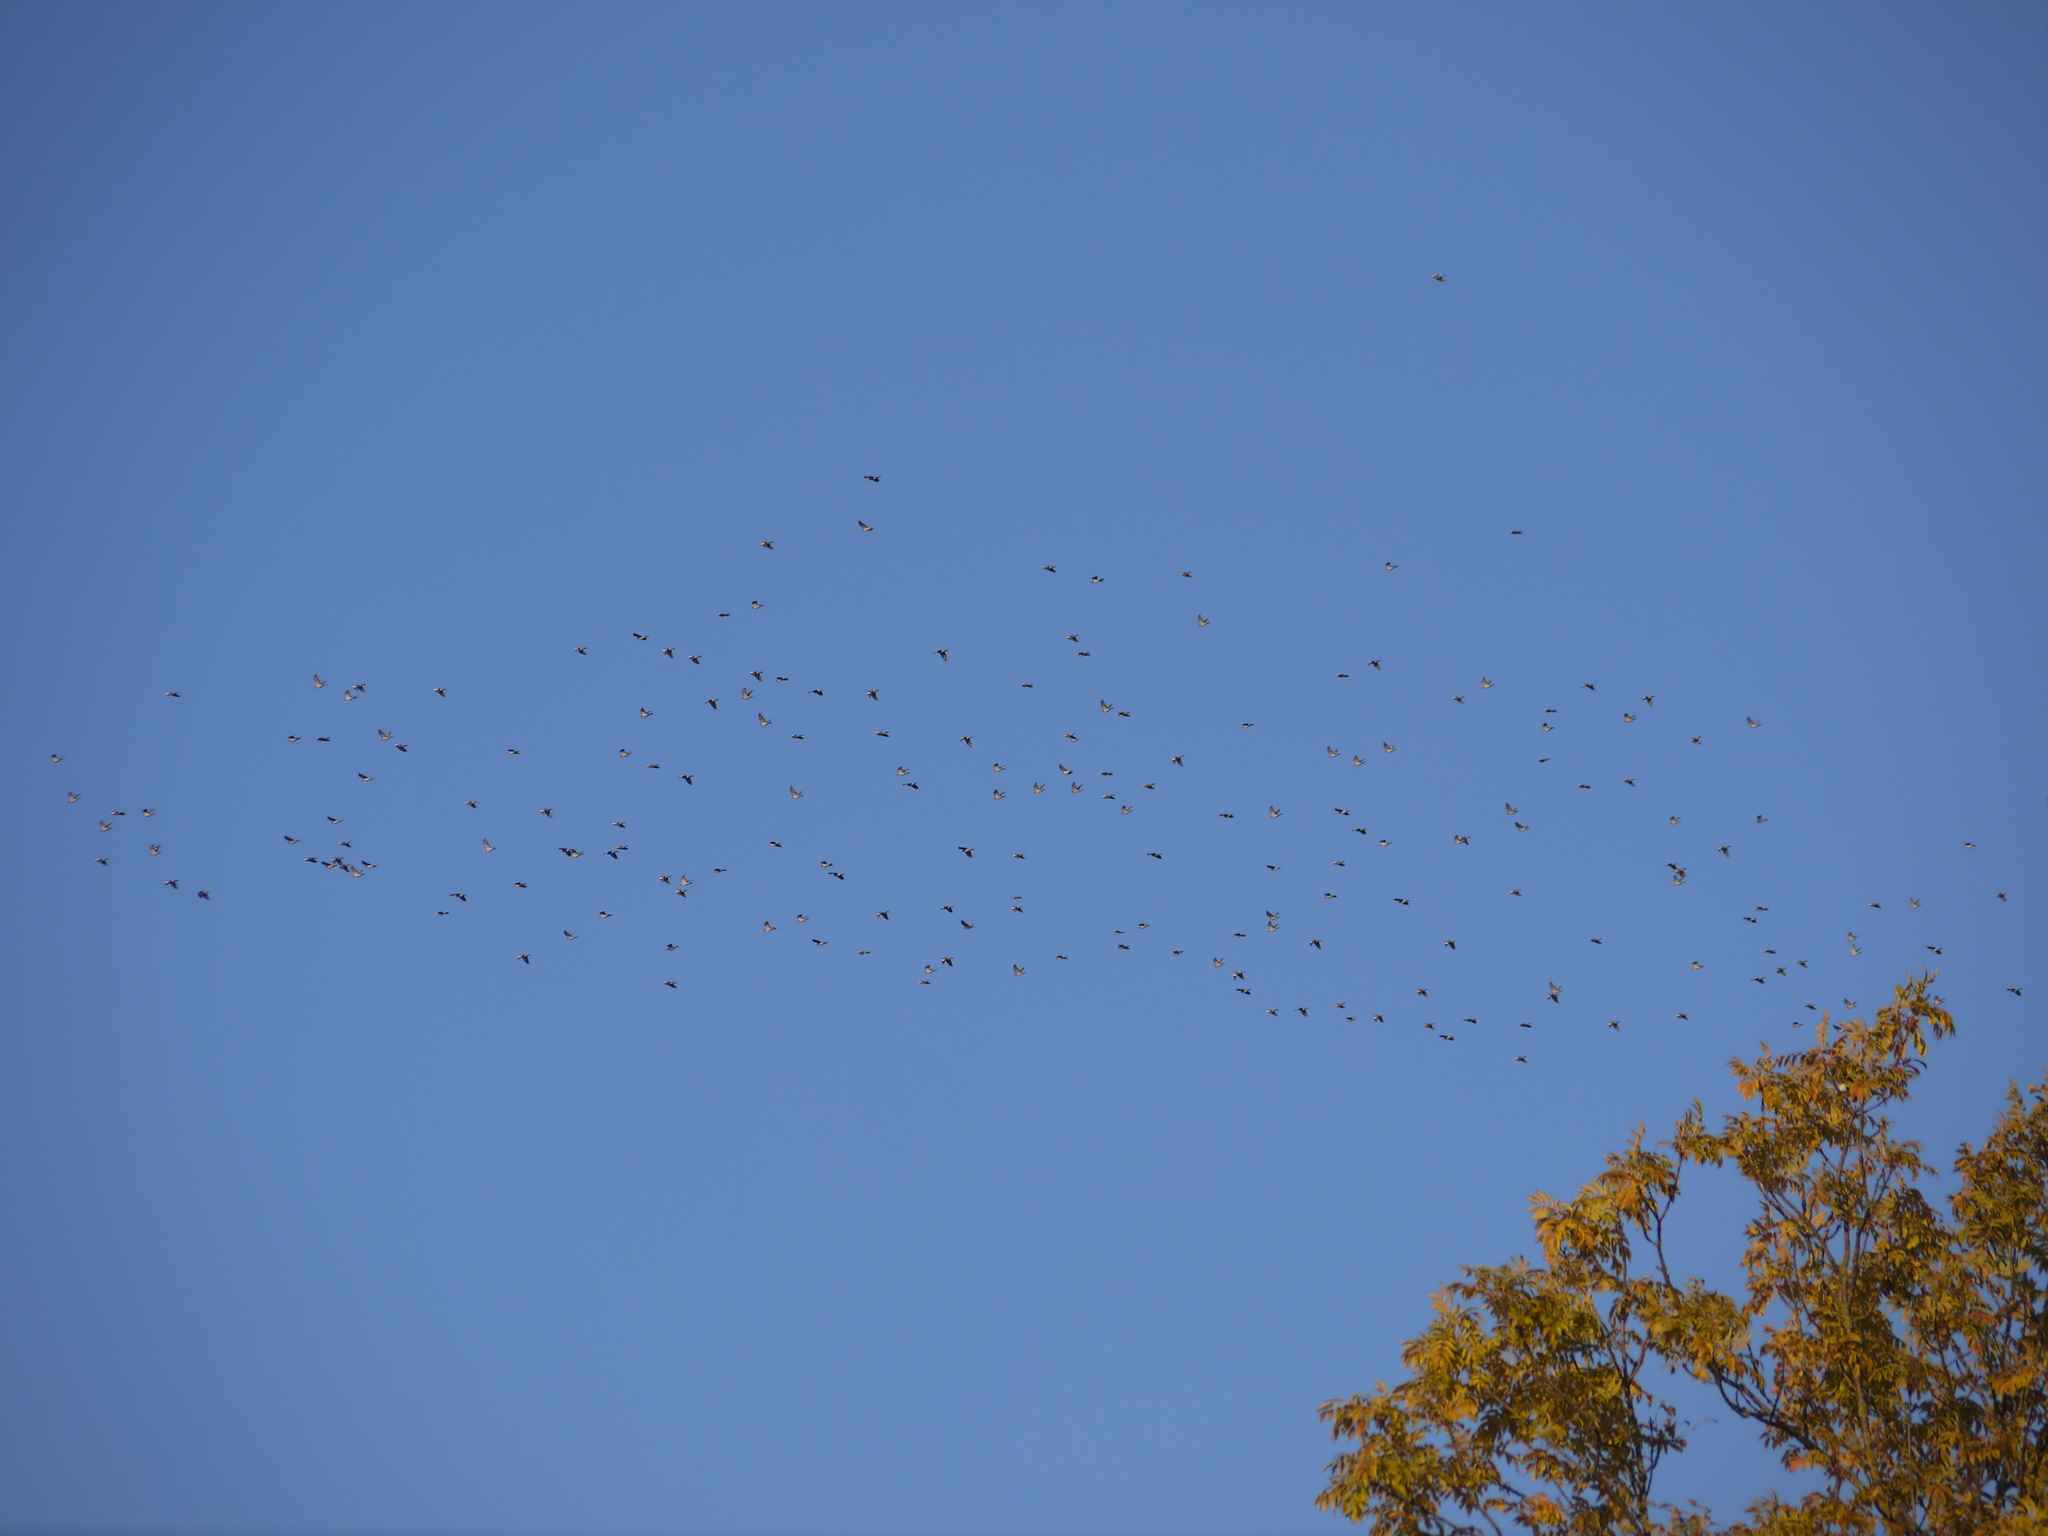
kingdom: Animalia
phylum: Chordata
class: Aves
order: Columbiformes
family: Columbidae
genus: Columba
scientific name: Columba palumbus
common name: Common wood pigeon
